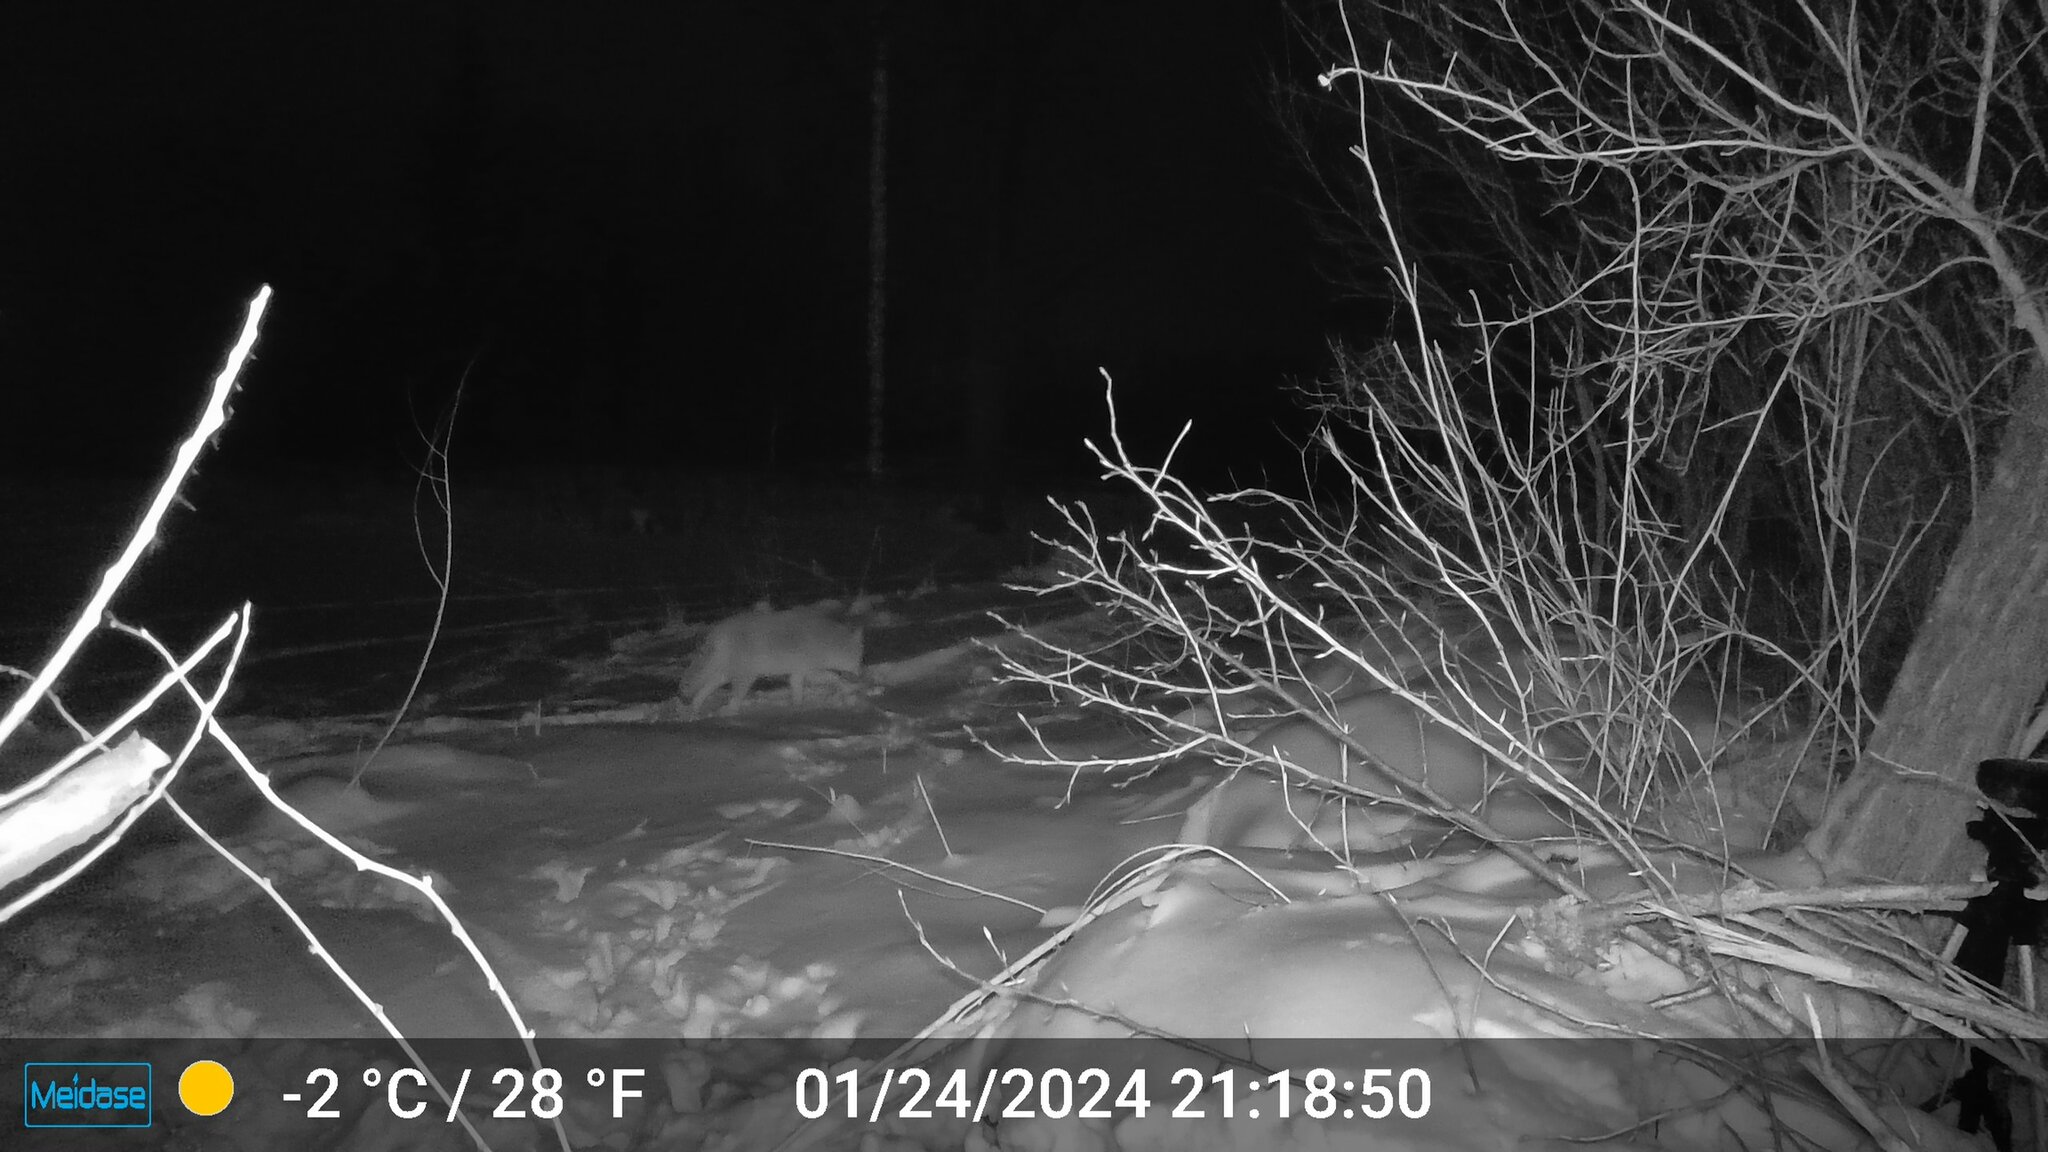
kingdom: Animalia
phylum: Chordata
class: Mammalia
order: Carnivora
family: Canidae
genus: Canis
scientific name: Canis latrans
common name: Coyote
